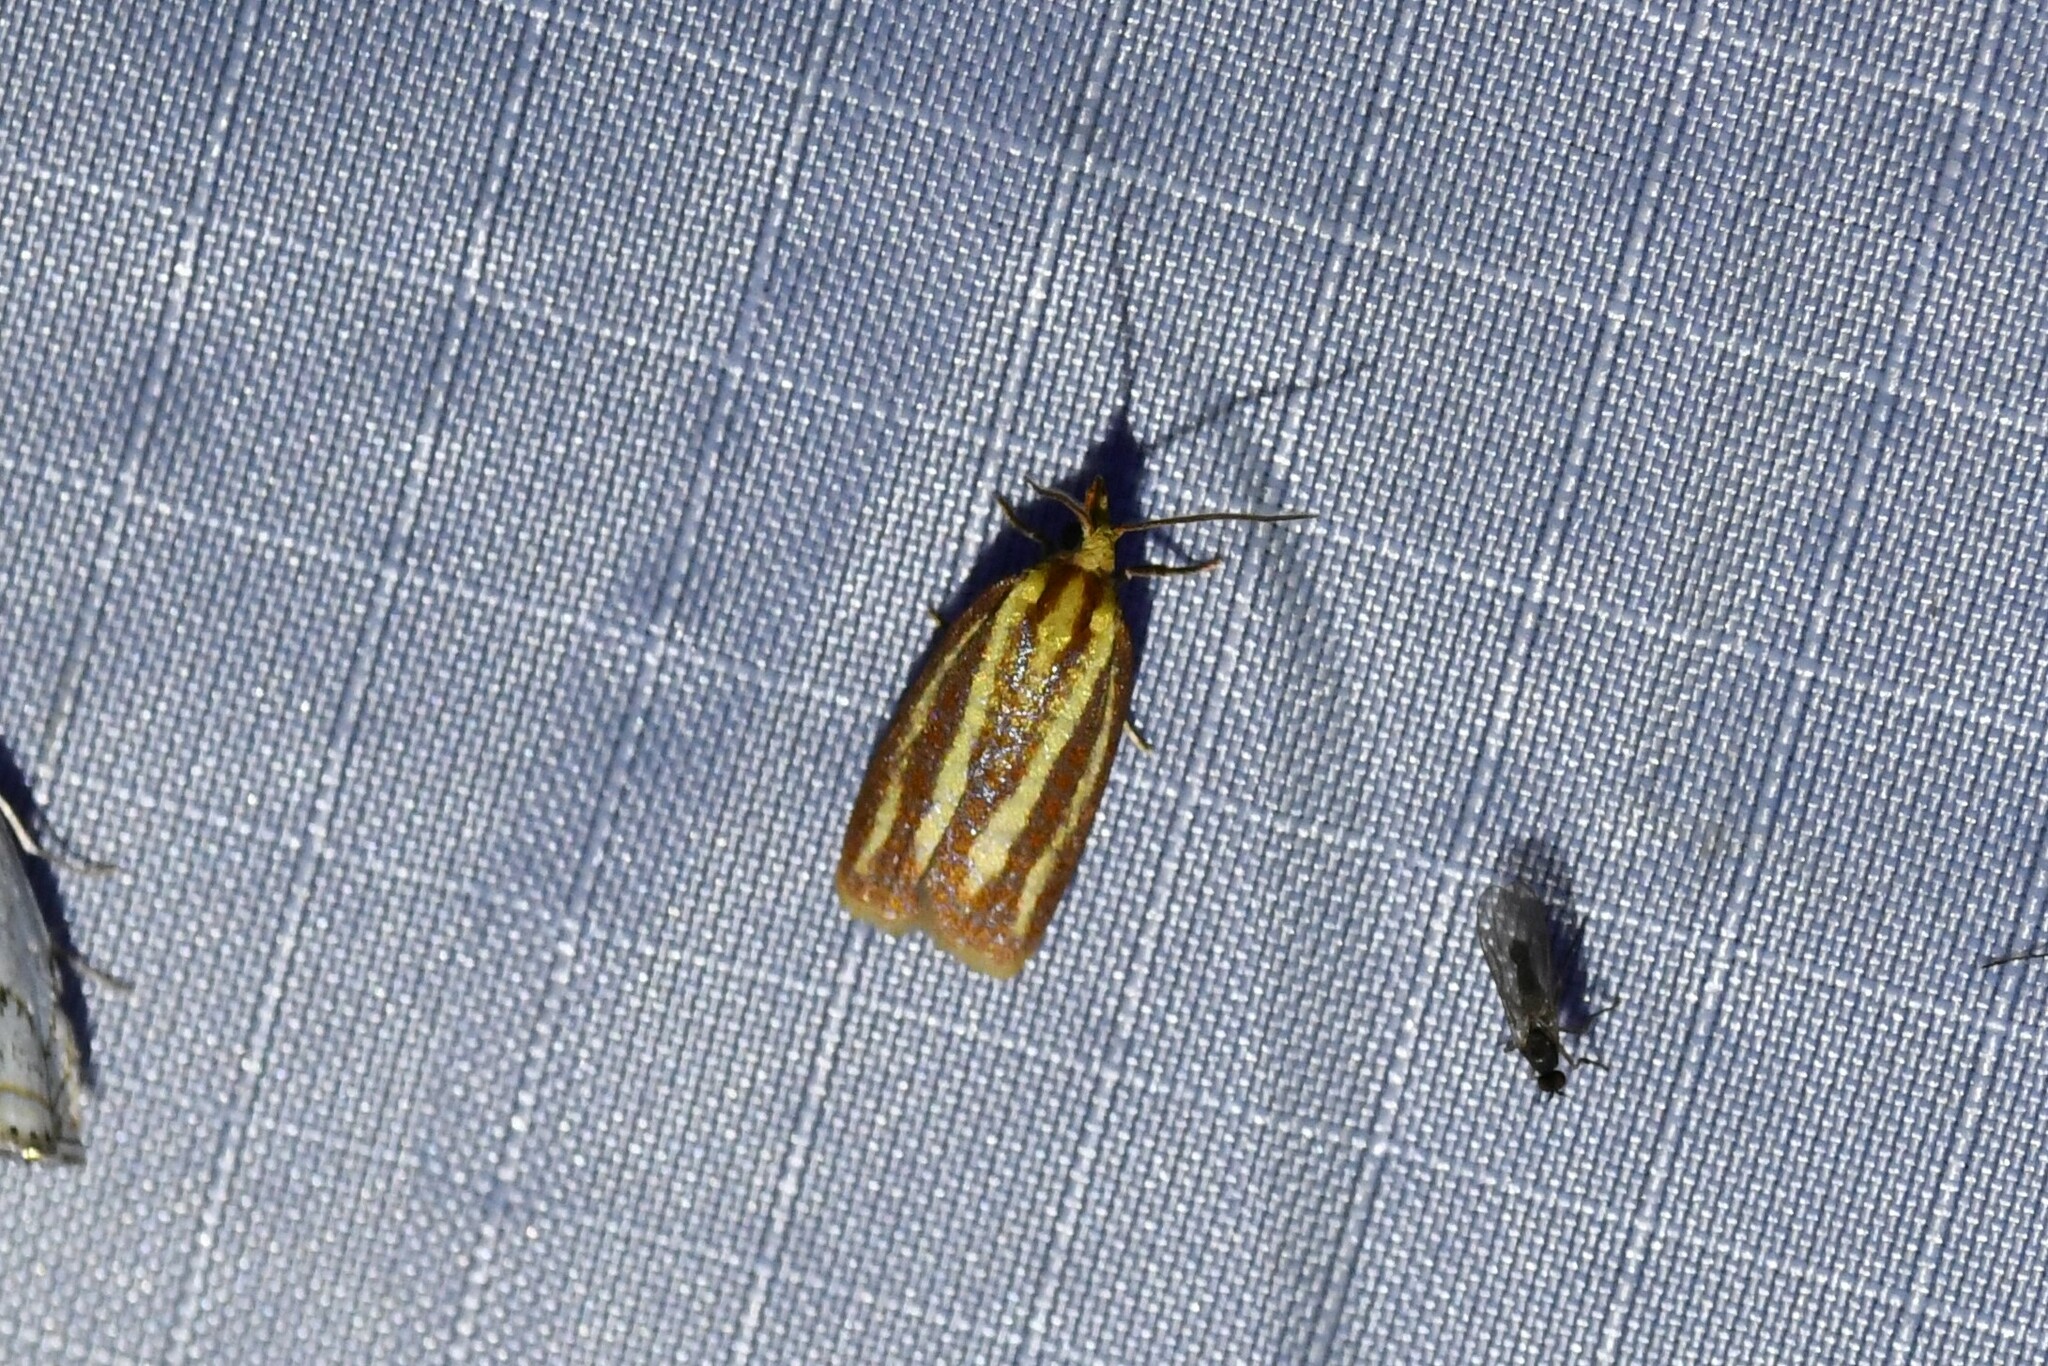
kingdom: Animalia
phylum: Arthropoda
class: Insecta
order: Lepidoptera
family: Tortricidae
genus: Sparganothis
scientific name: Sparganothis tristriata
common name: Three-streaked sparganothis moth
